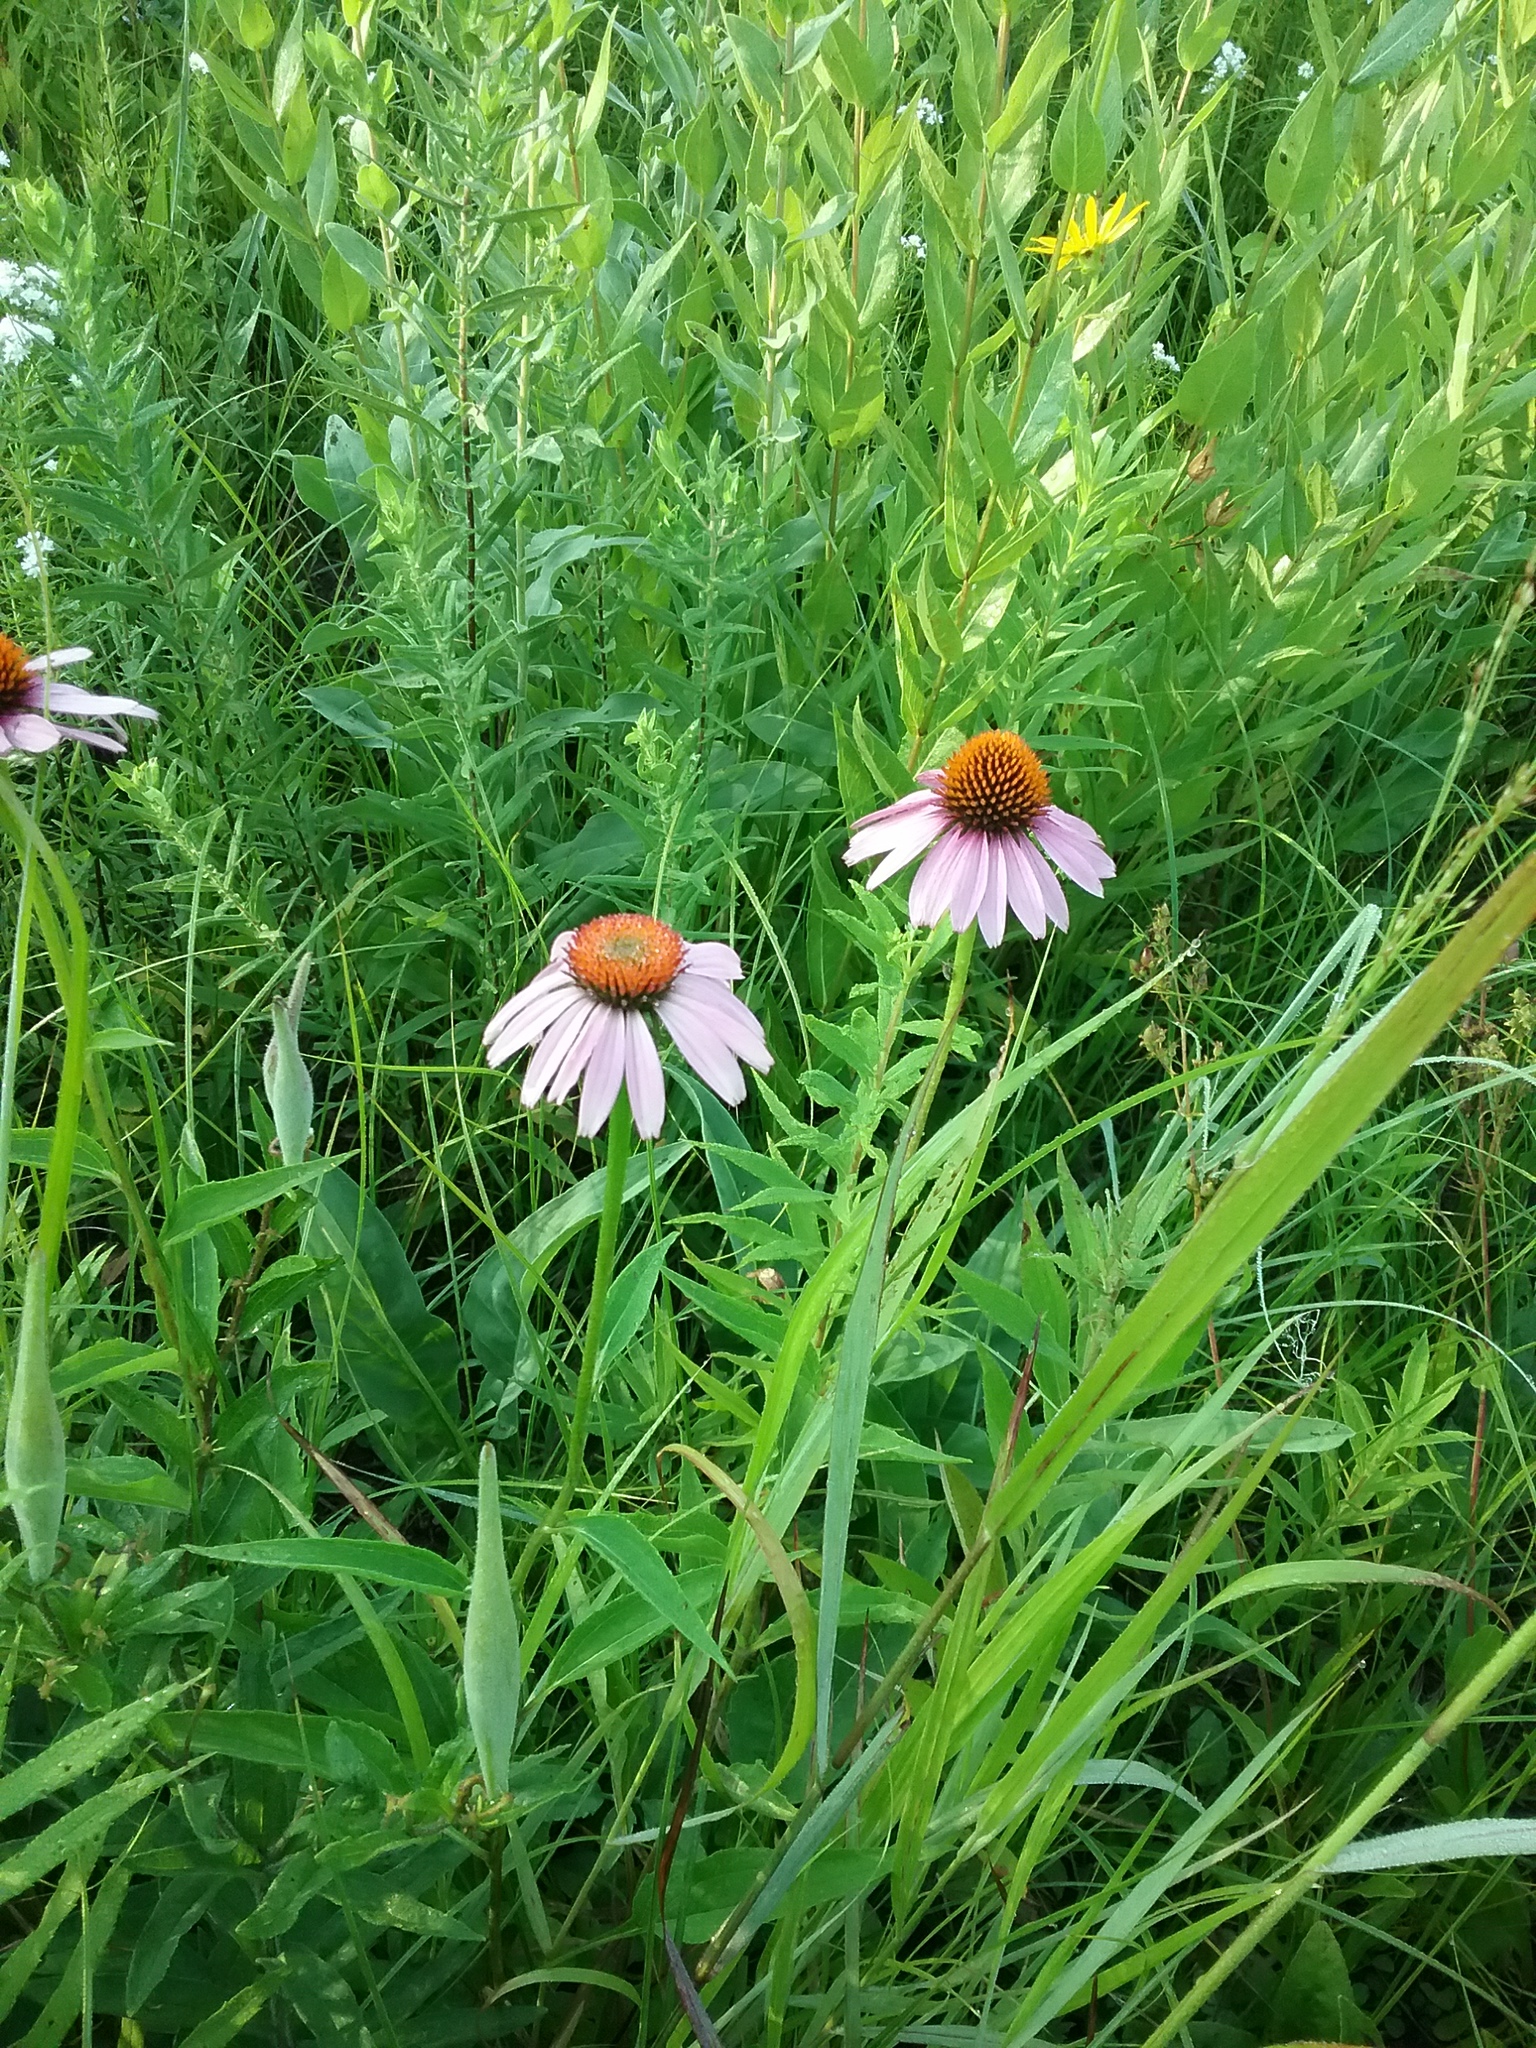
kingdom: Plantae
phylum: Tracheophyta
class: Magnoliopsida
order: Asterales
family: Asteraceae
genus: Echinacea
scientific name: Echinacea purpurea
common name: Broad-leaved purple coneflower
